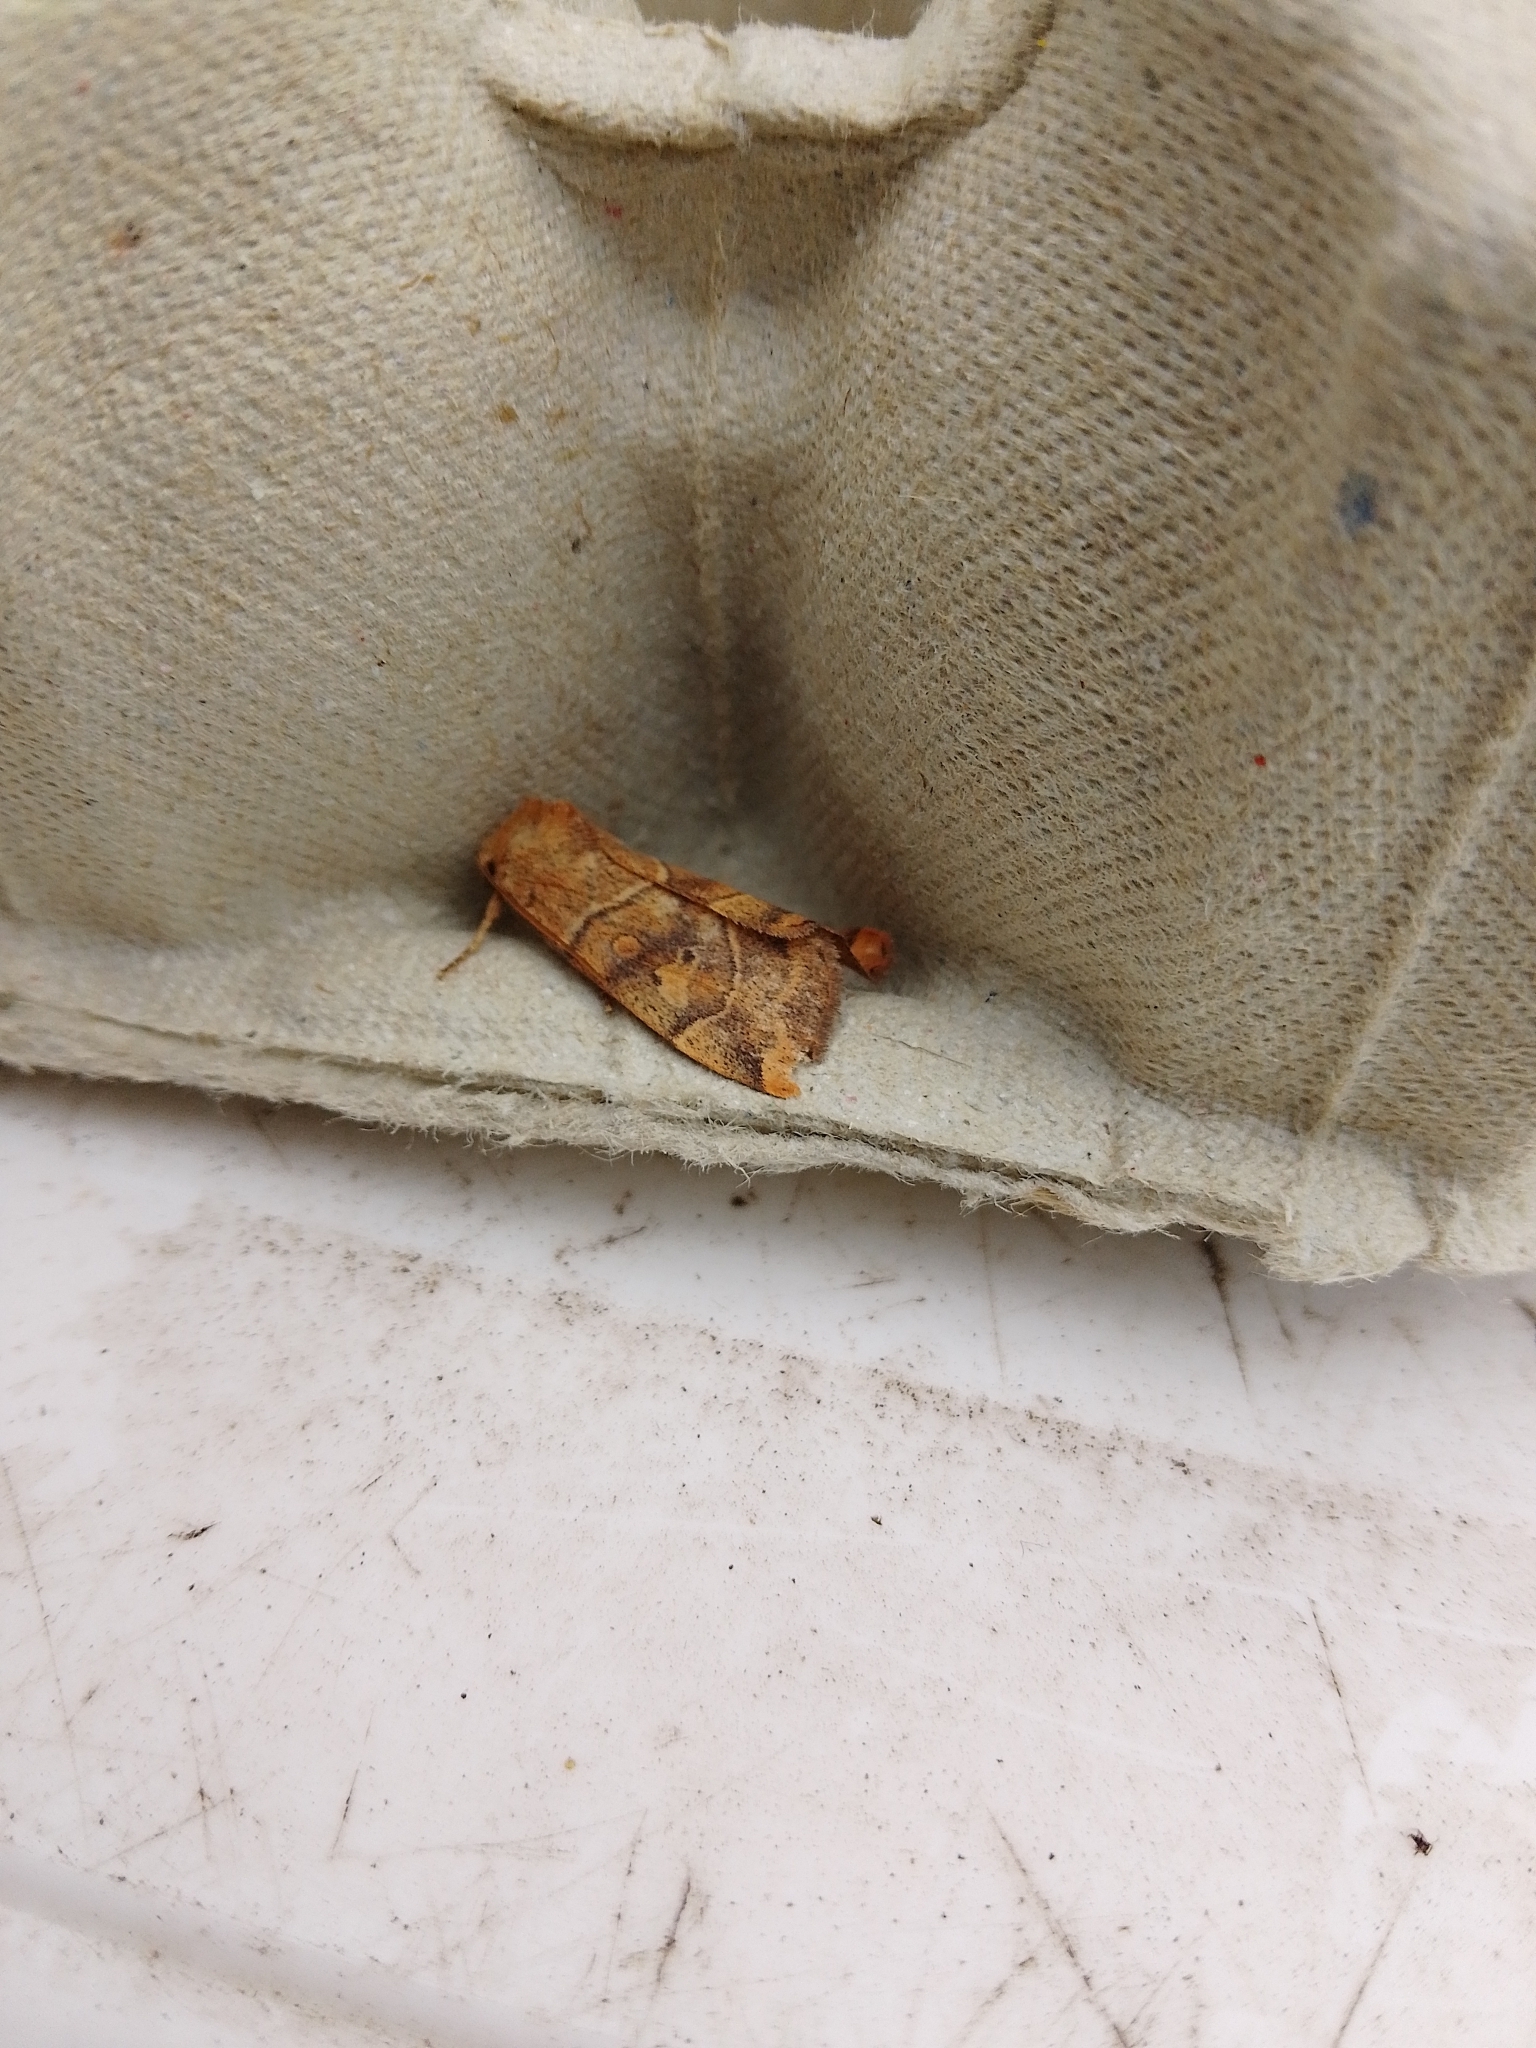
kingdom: Animalia
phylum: Arthropoda
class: Insecta
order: Lepidoptera
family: Noctuidae
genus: Cosmia
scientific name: Cosmia trapezina
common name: Dun-bar
